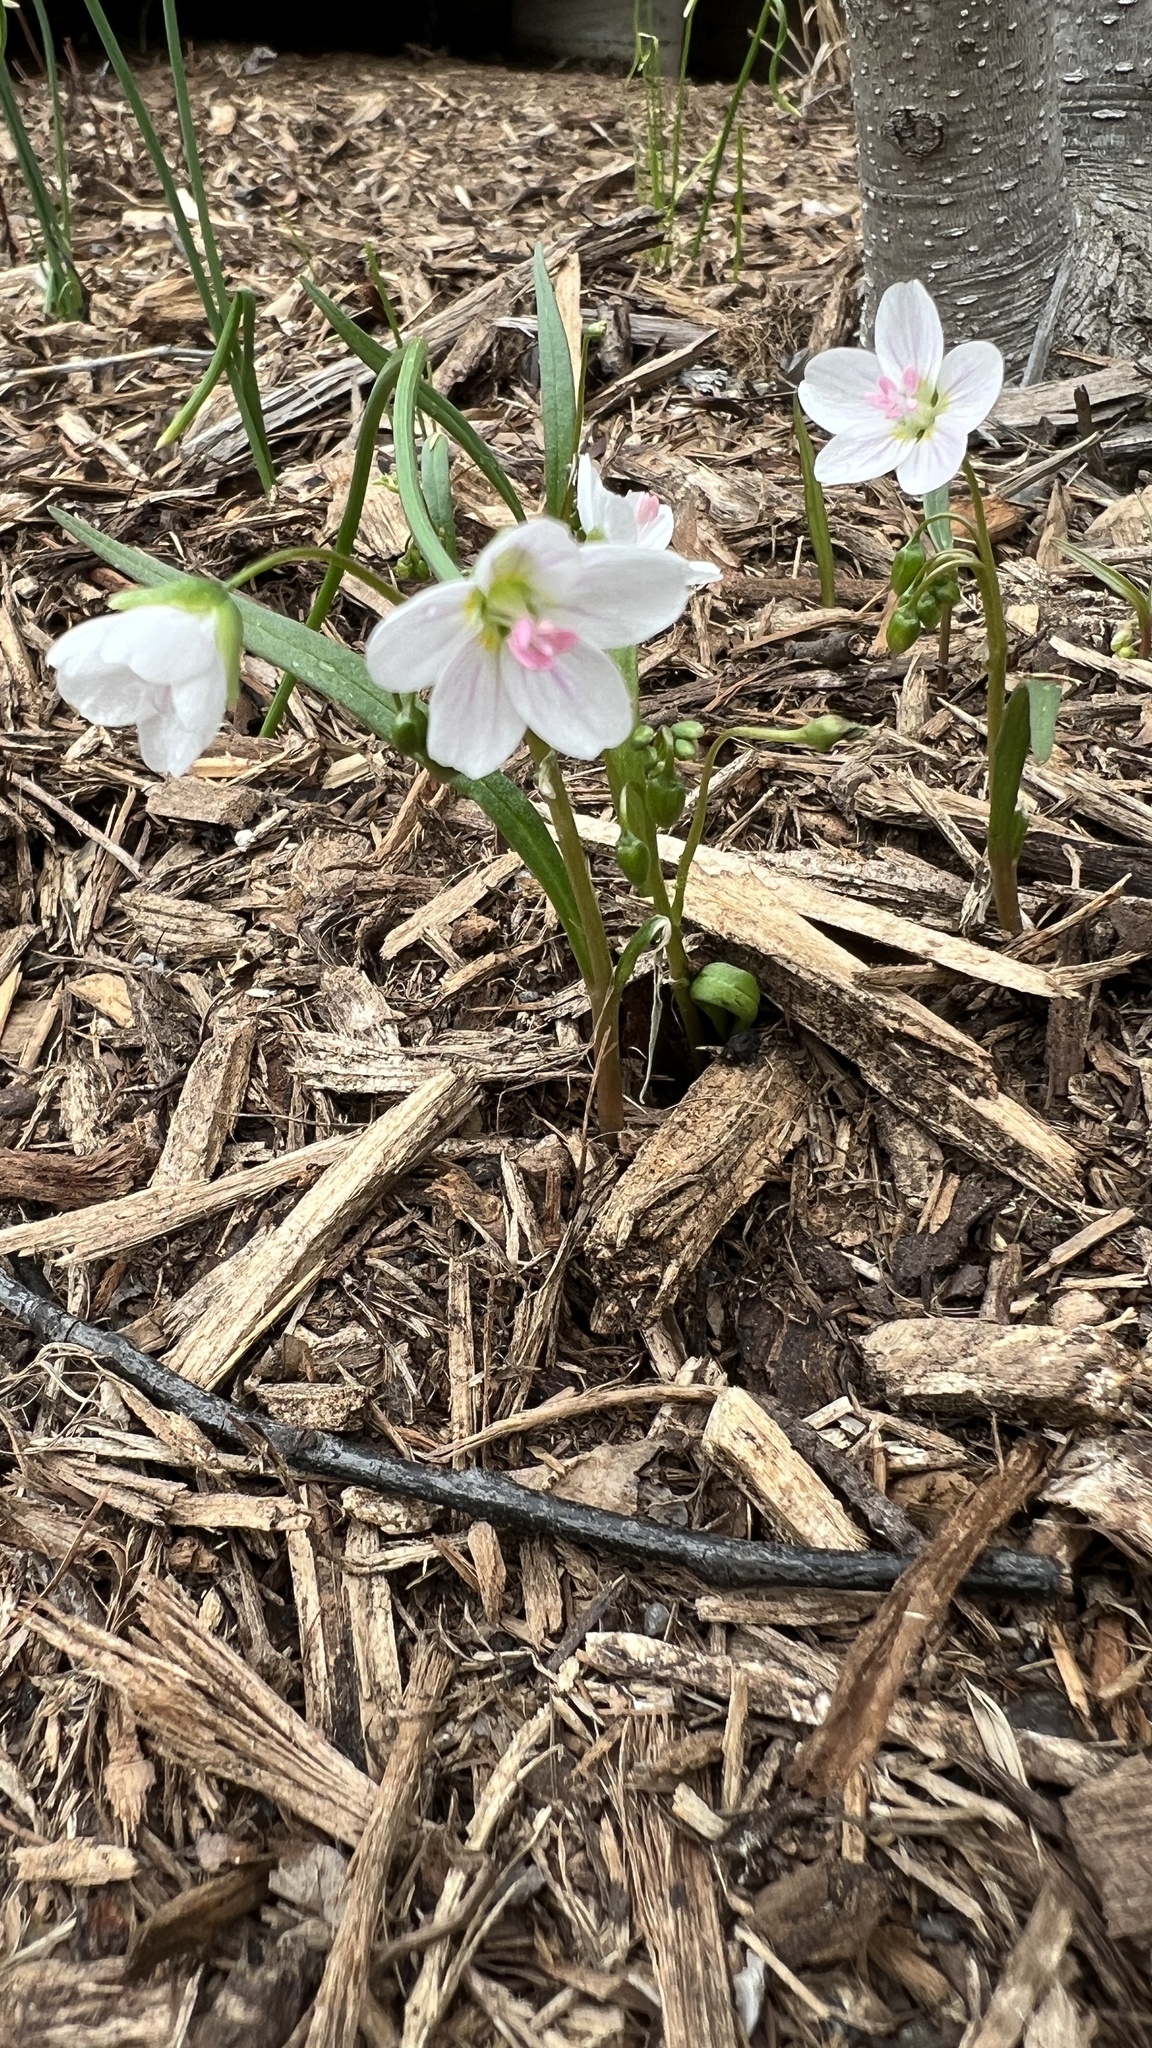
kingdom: Plantae
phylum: Tracheophyta
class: Magnoliopsida
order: Caryophyllales
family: Montiaceae
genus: Claytonia
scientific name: Claytonia virginica
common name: Virginia springbeauty
